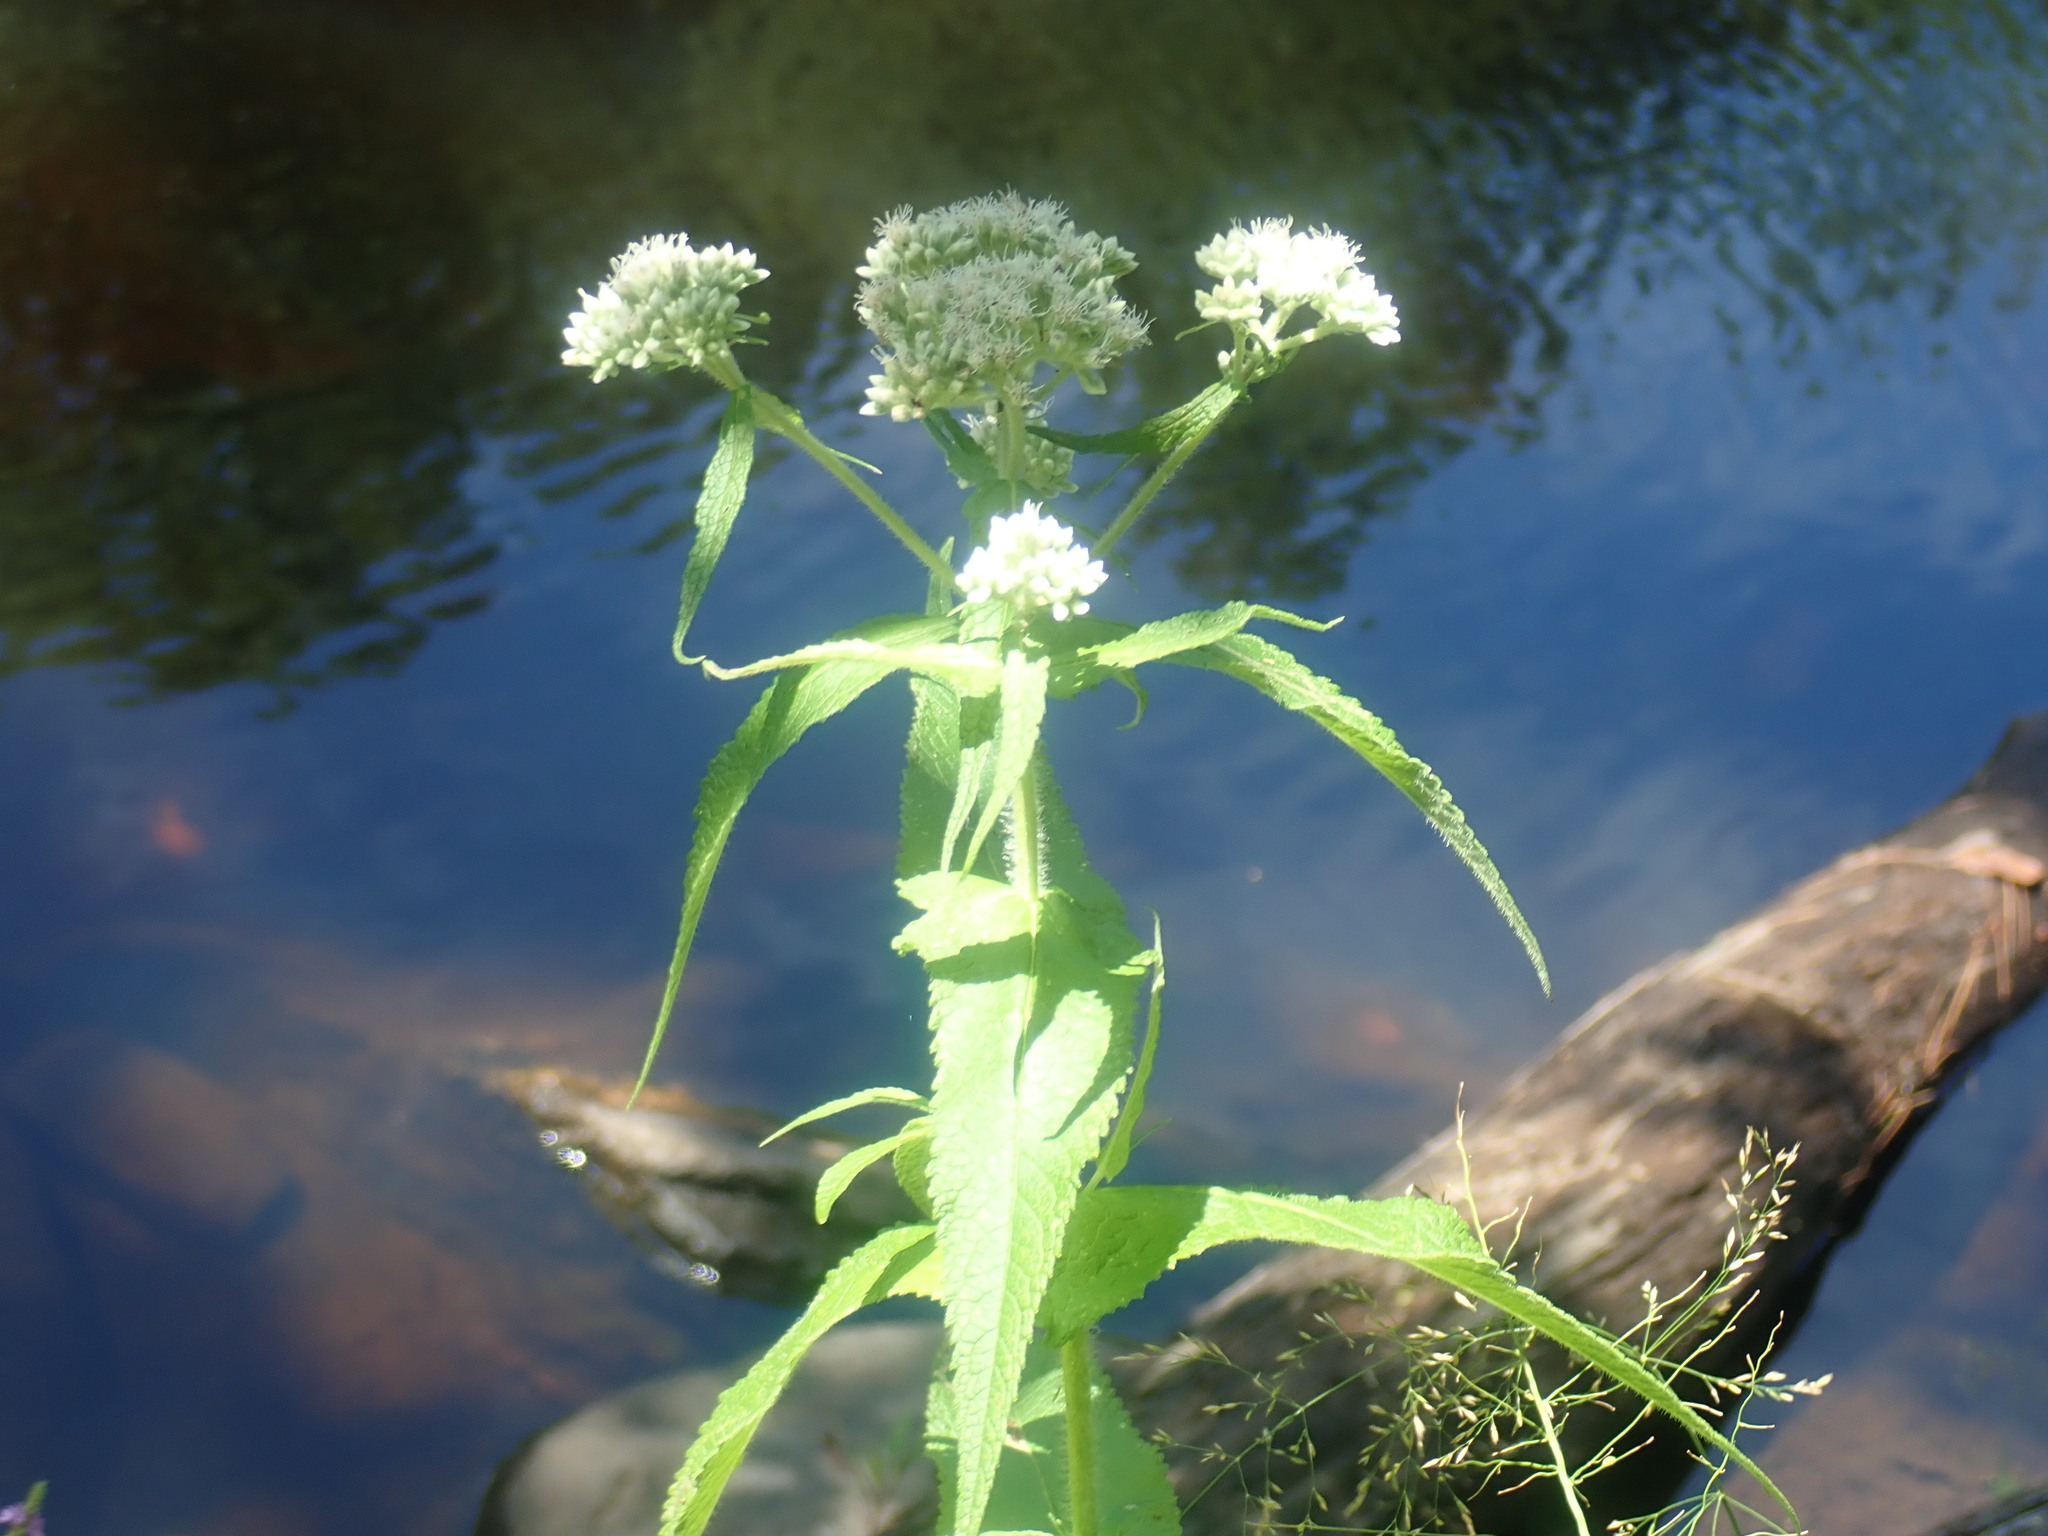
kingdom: Plantae
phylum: Tracheophyta
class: Magnoliopsida
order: Asterales
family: Asteraceae
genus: Eupatorium
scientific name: Eupatorium perfoliatum
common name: Boneset
